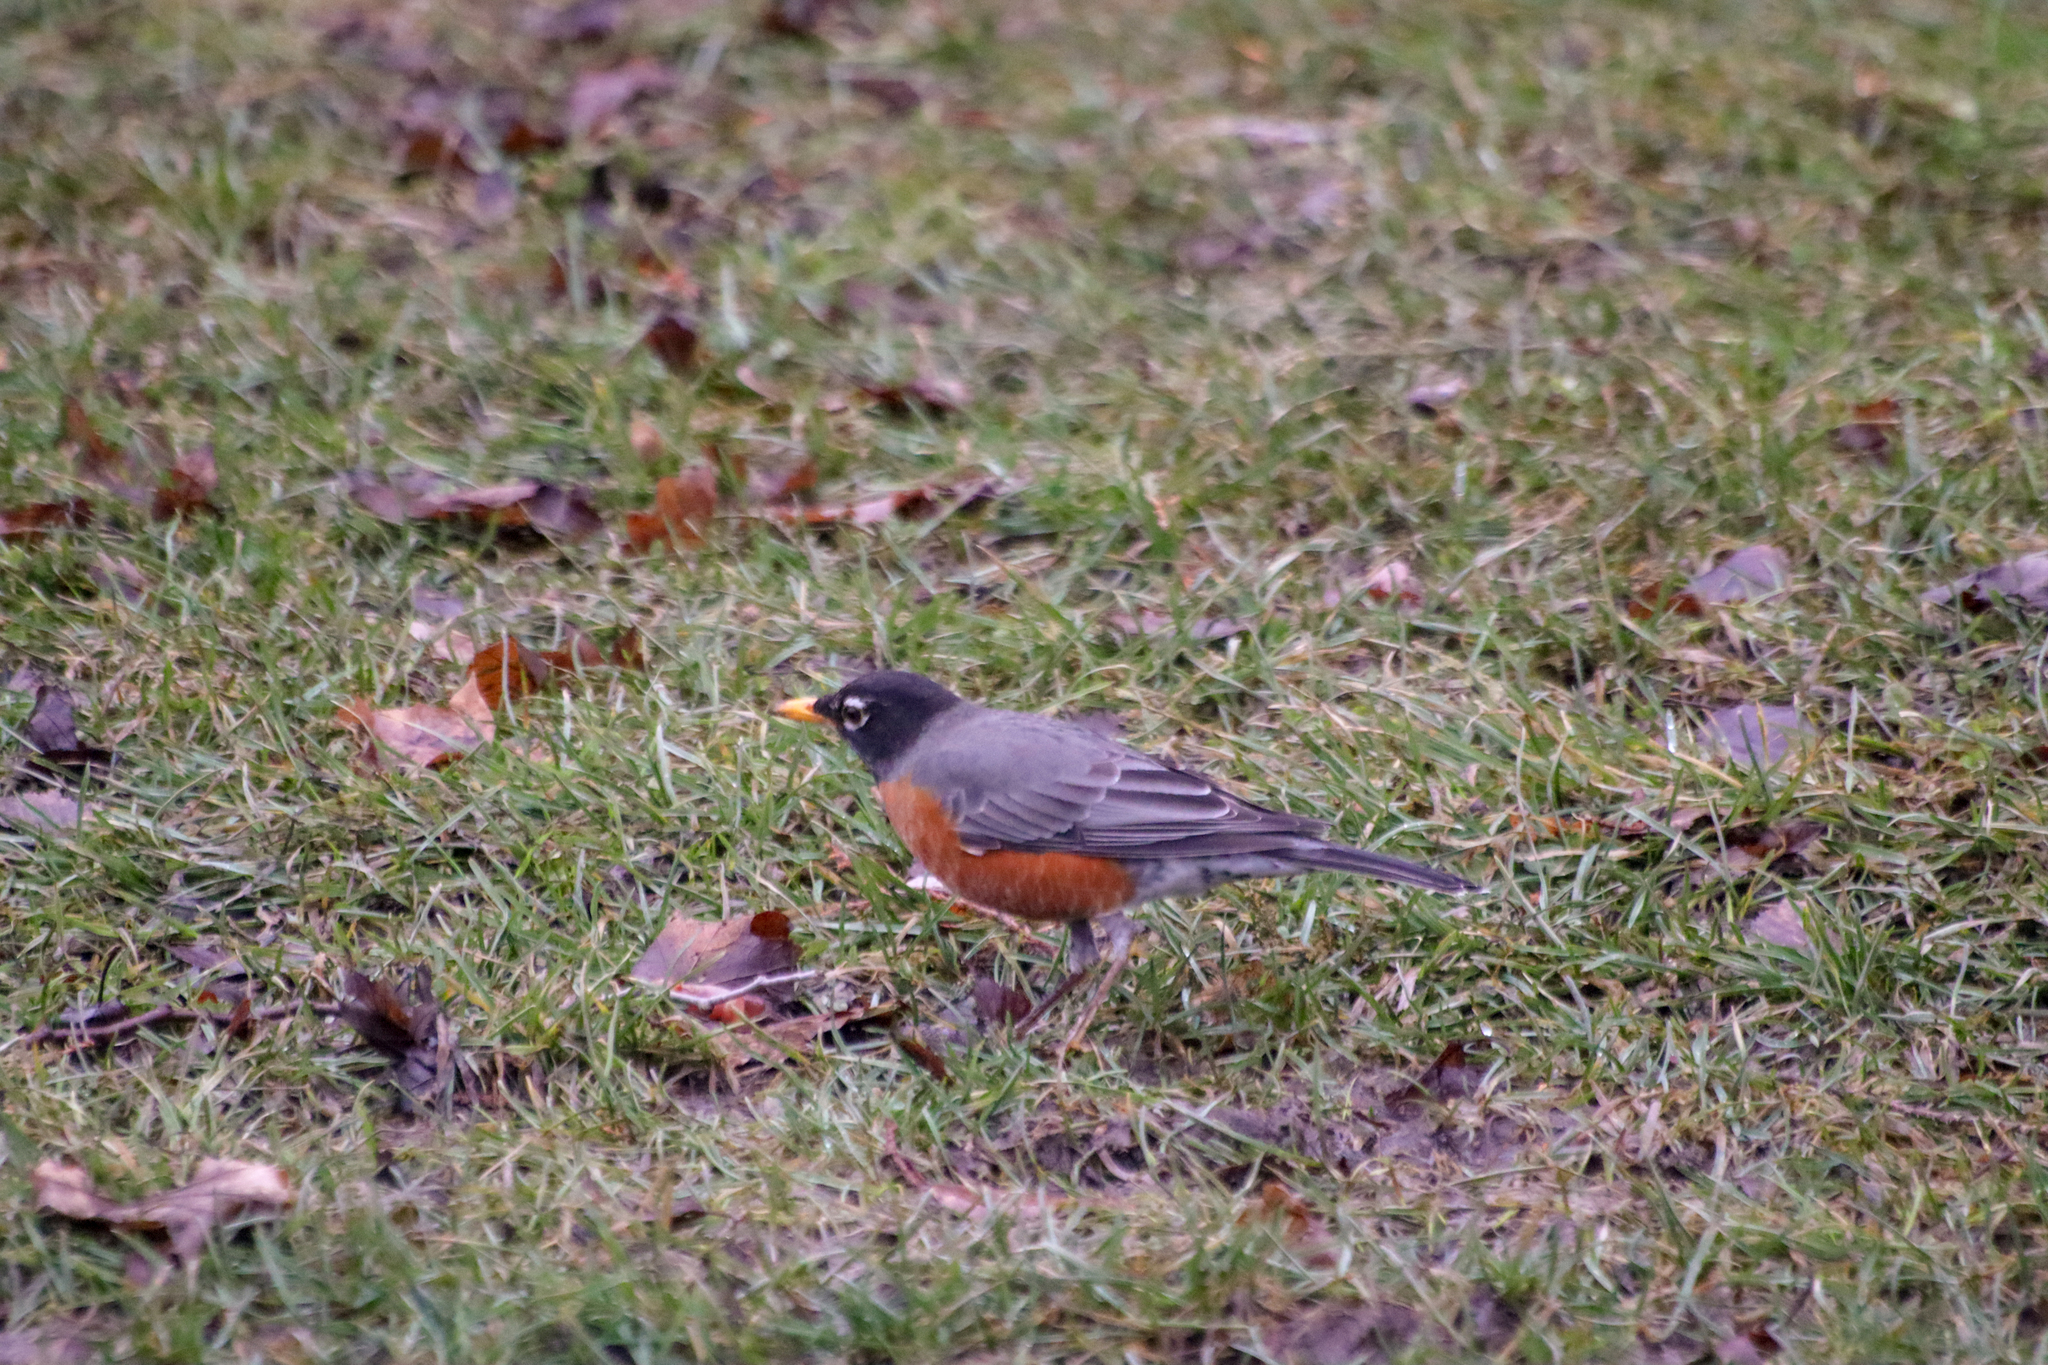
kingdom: Animalia
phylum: Chordata
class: Aves
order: Passeriformes
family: Turdidae
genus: Turdus
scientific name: Turdus migratorius
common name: American robin
